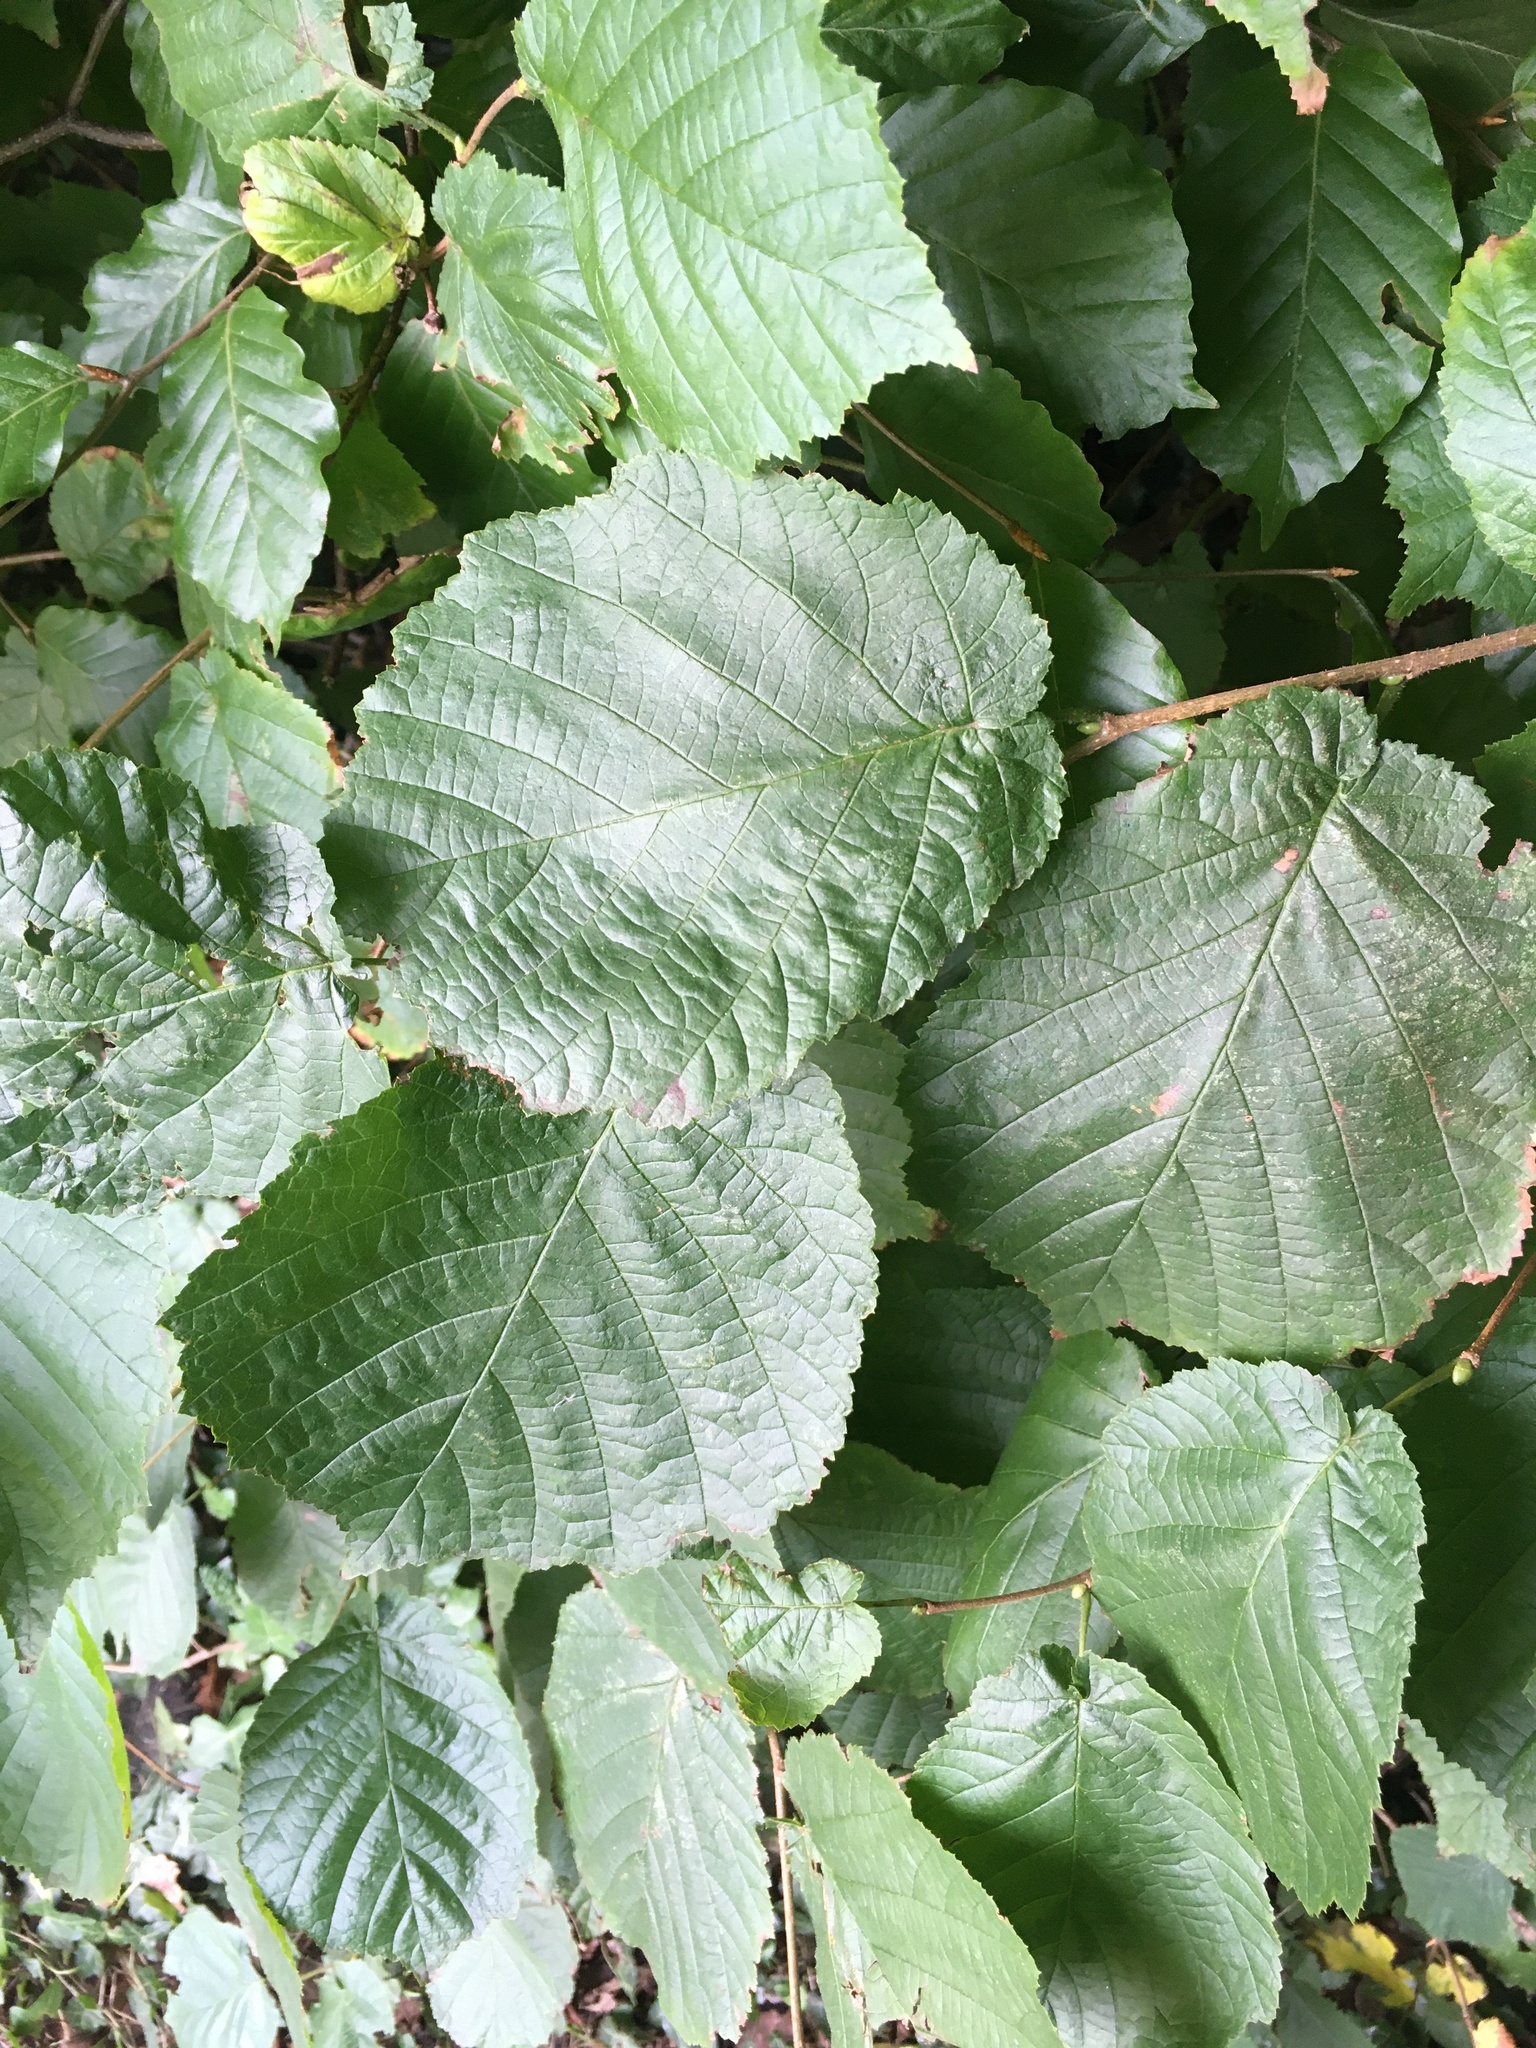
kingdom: Plantae
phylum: Tracheophyta
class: Magnoliopsida
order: Fagales
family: Betulaceae
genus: Corylus
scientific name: Corylus avellana
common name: European hazel
